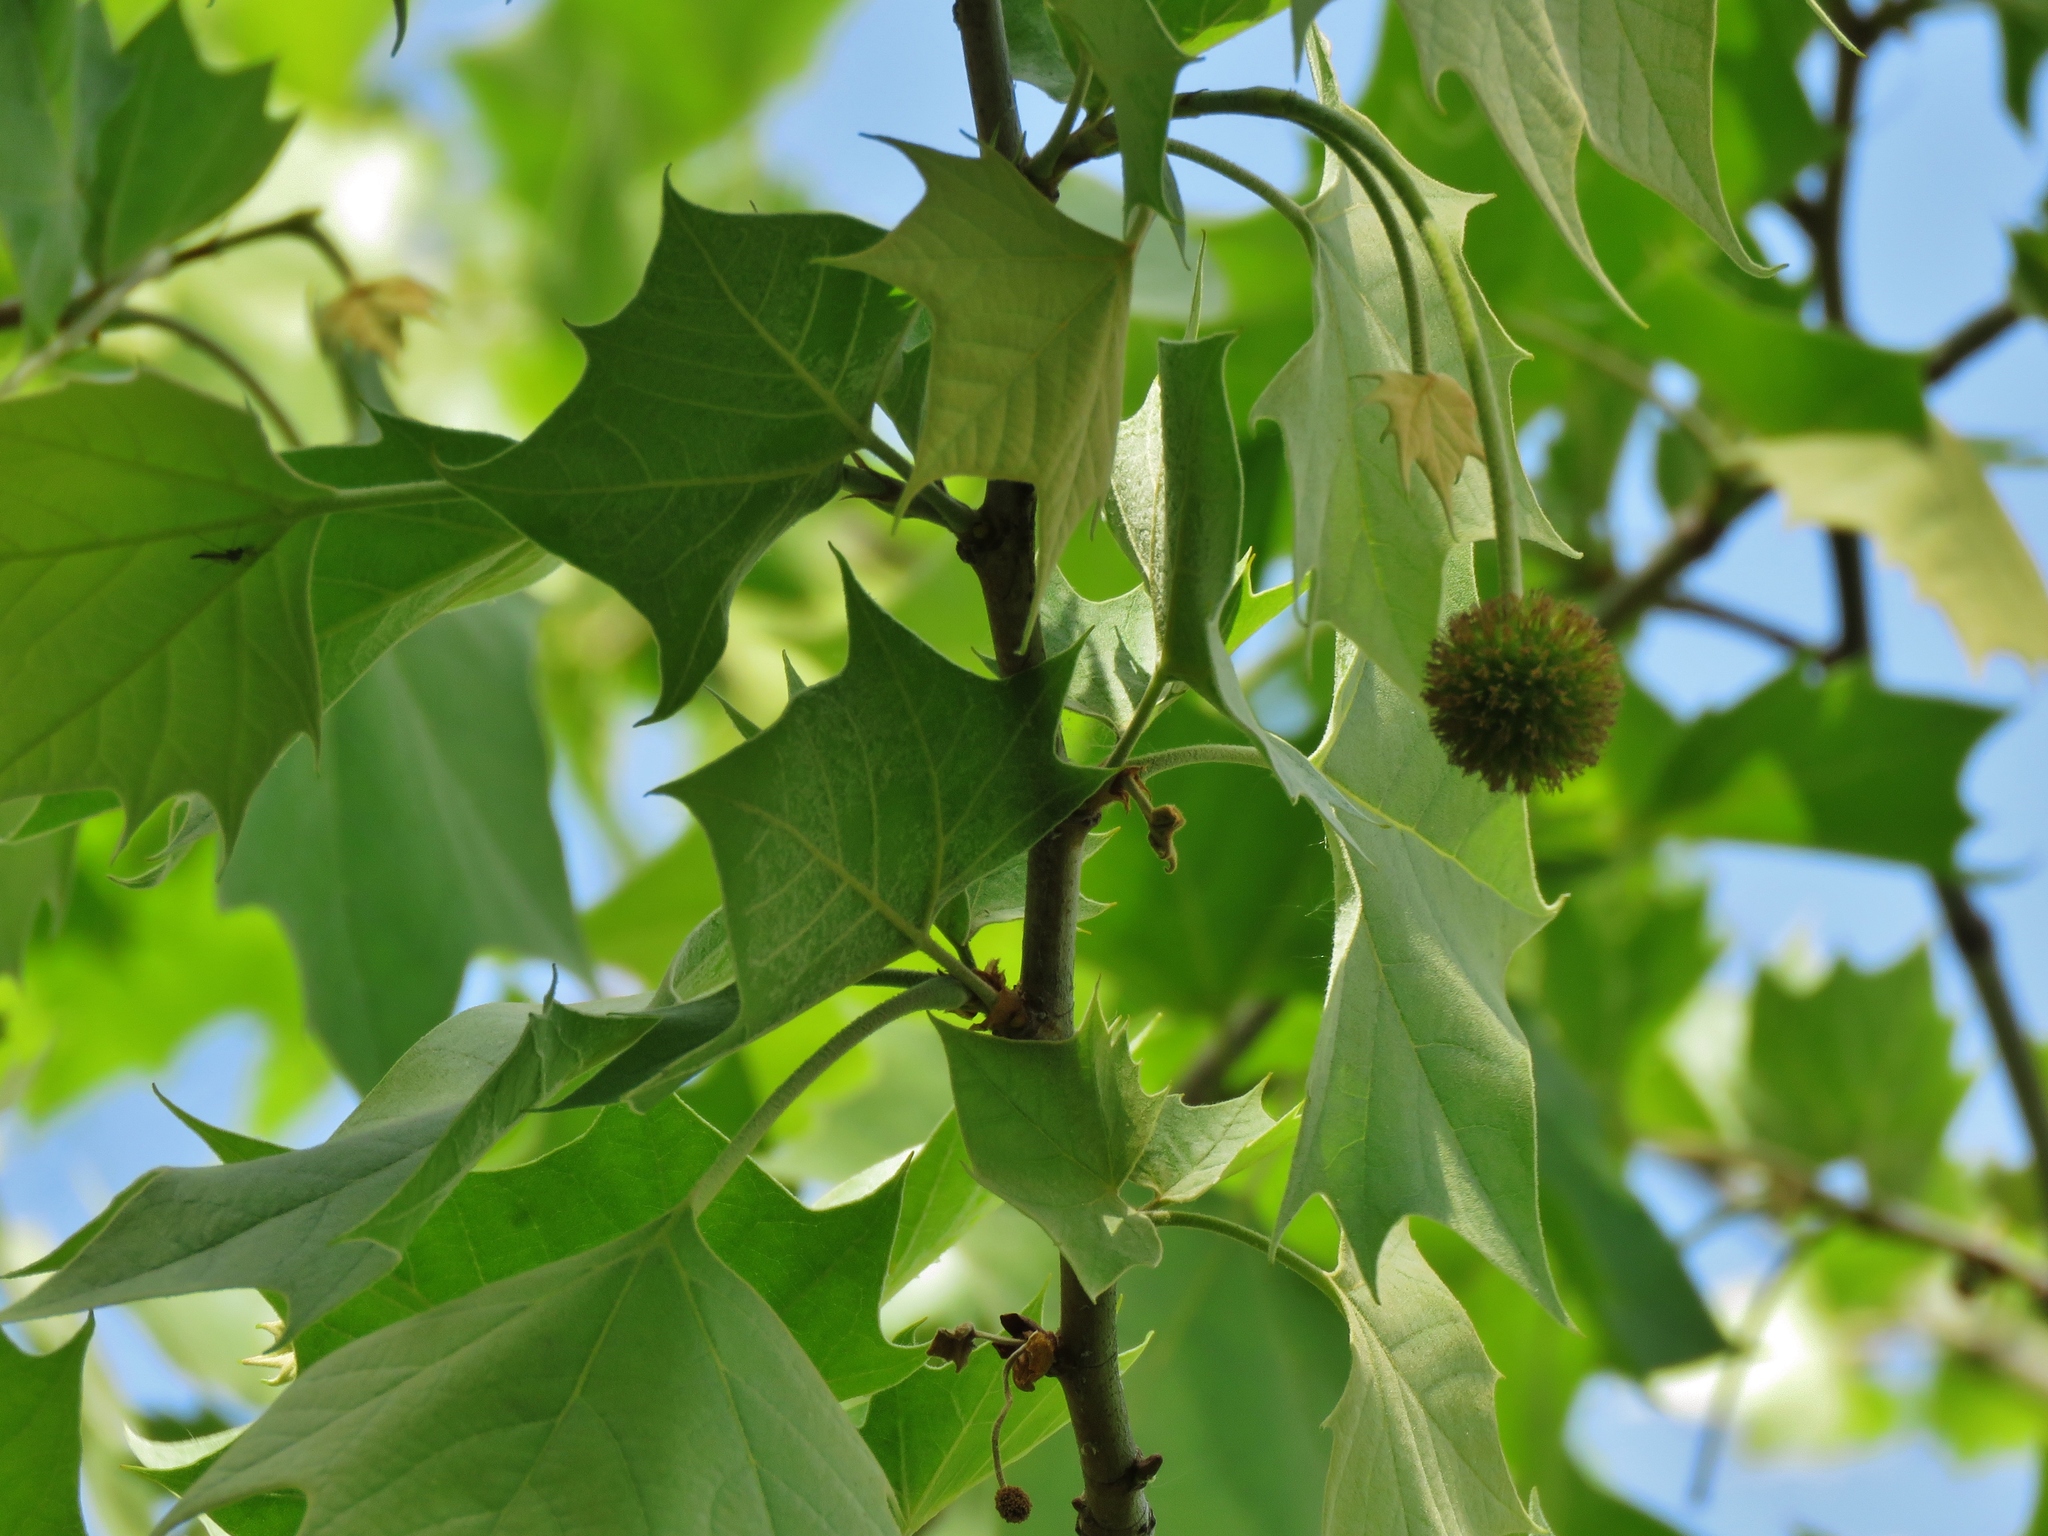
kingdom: Plantae
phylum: Tracheophyta
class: Magnoliopsida
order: Proteales
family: Platanaceae
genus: Platanus
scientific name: Platanus occidentalis
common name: American sycamore
